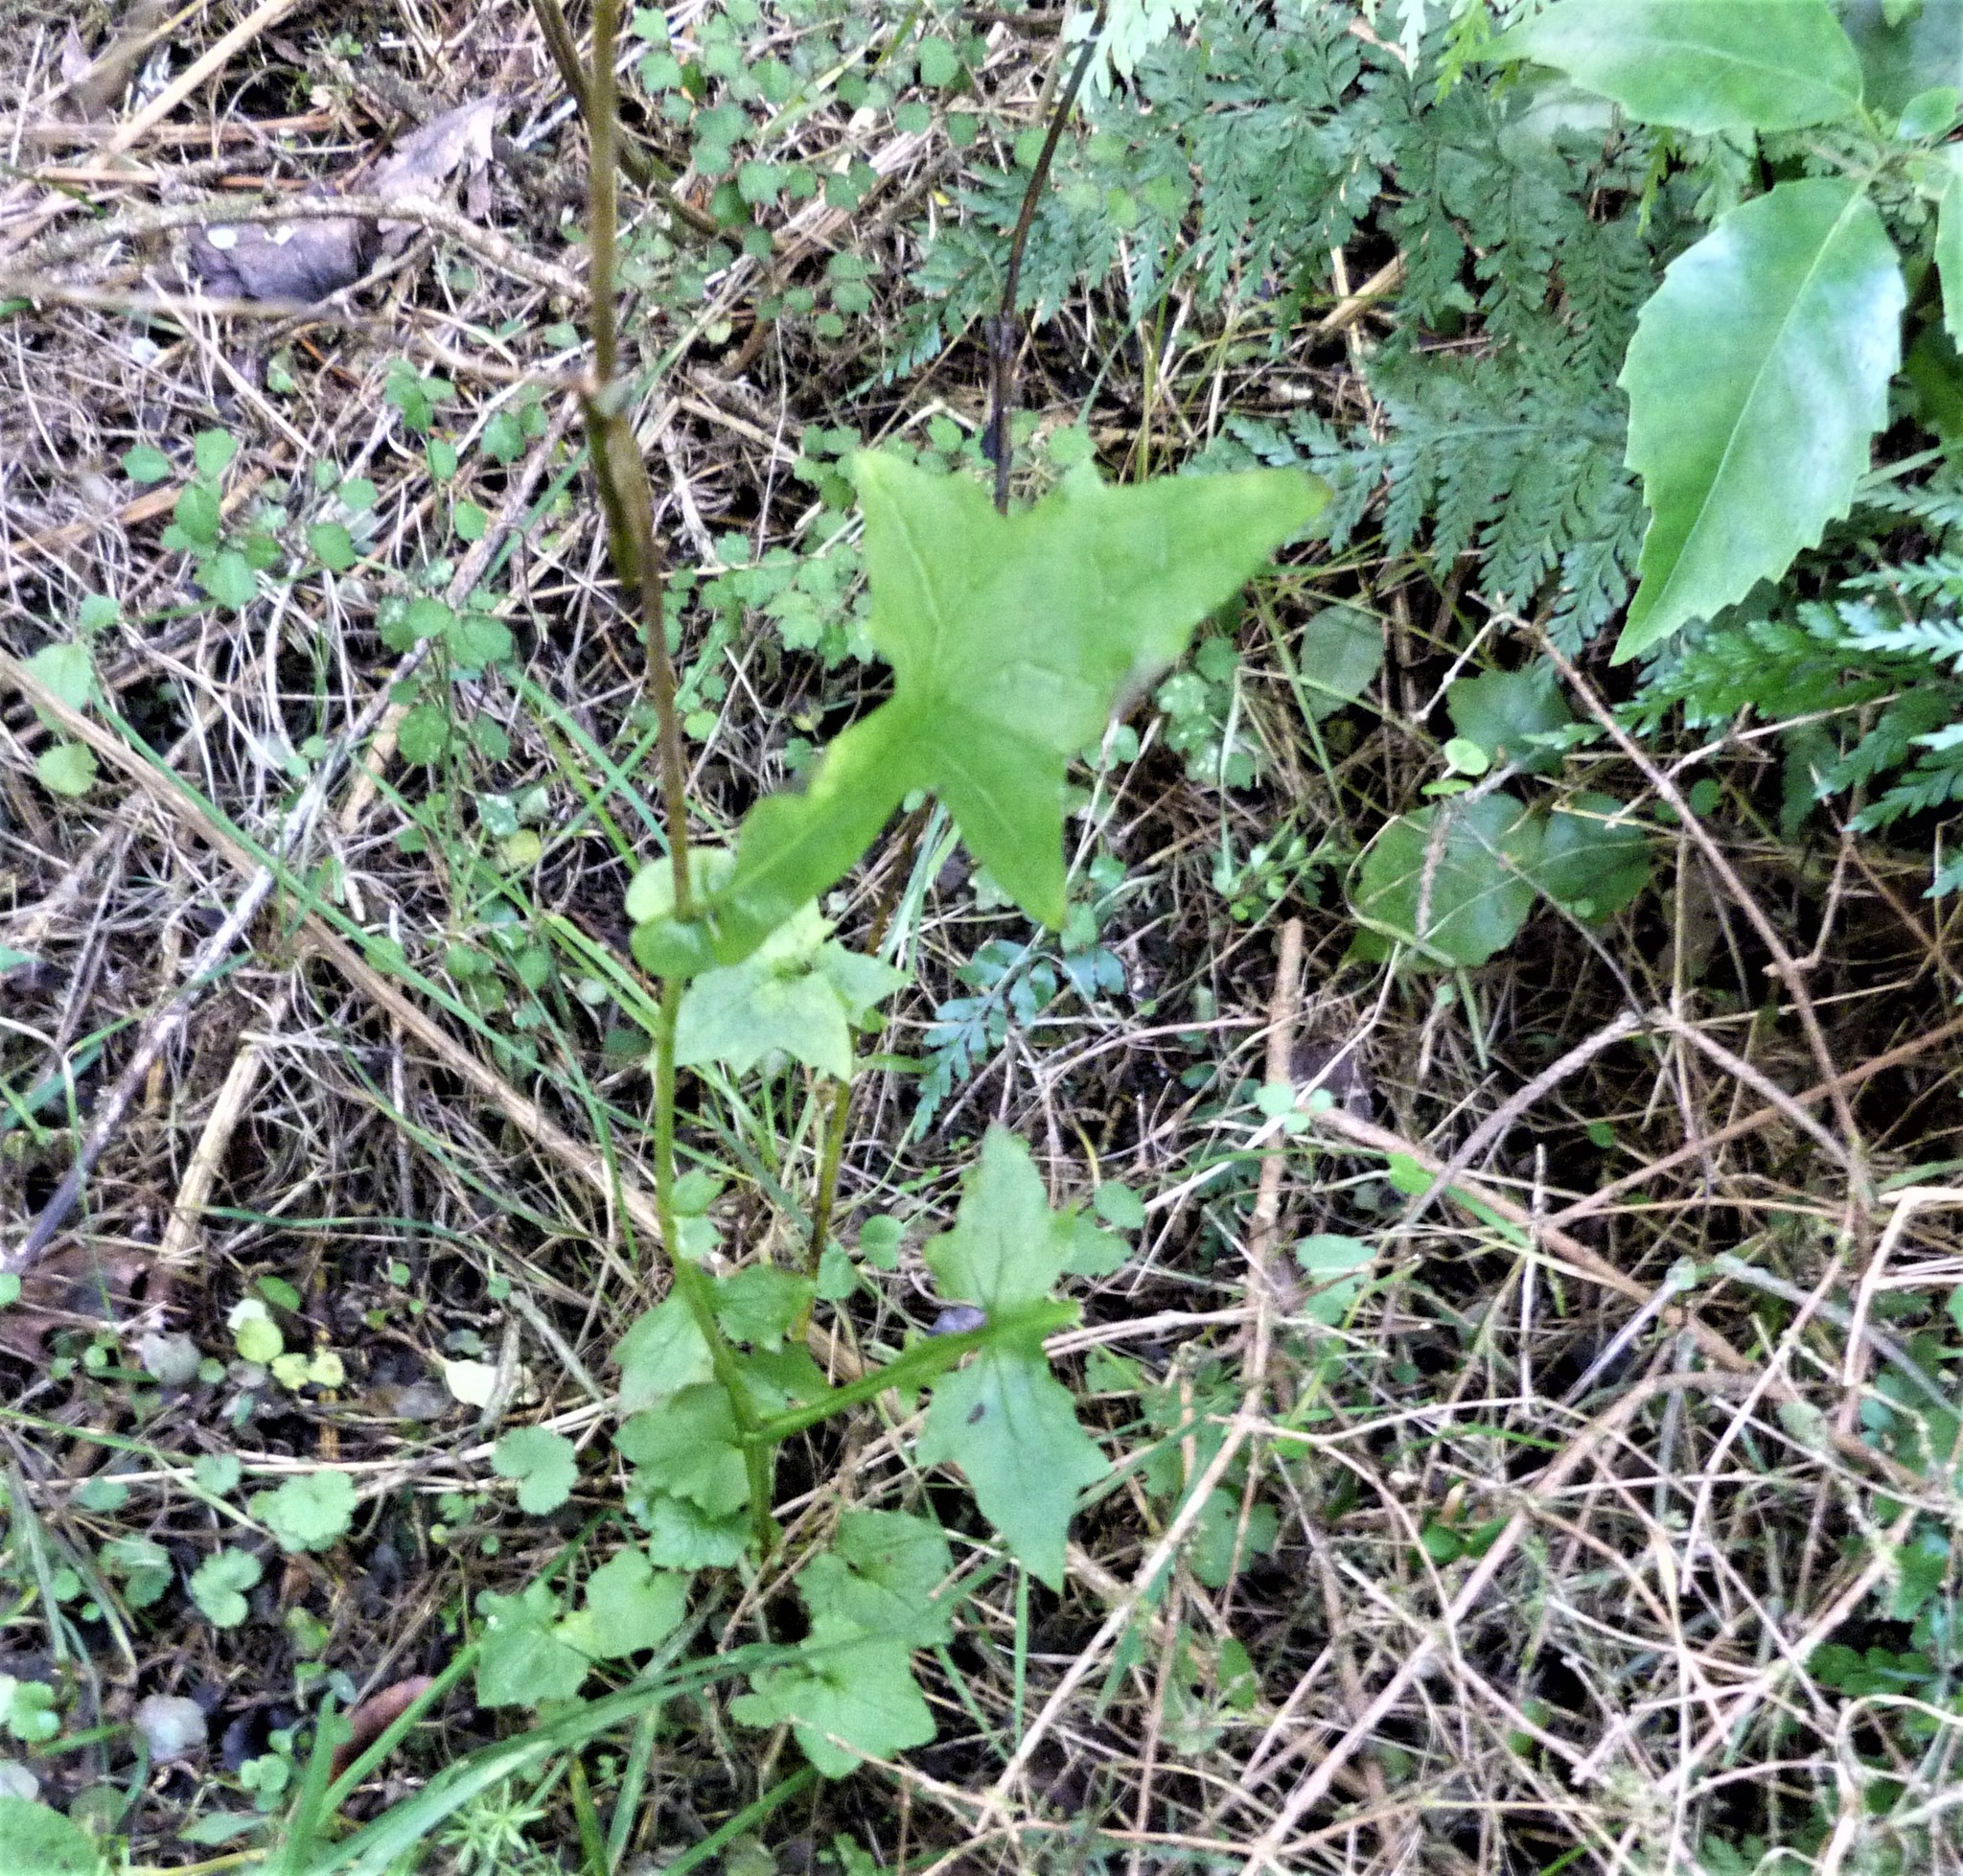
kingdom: Plantae
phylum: Tracheophyta
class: Magnoliopsida
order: Asterales
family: Asteraceae
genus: Mycelis
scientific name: Mycelis muralis
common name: Wall lettuce
